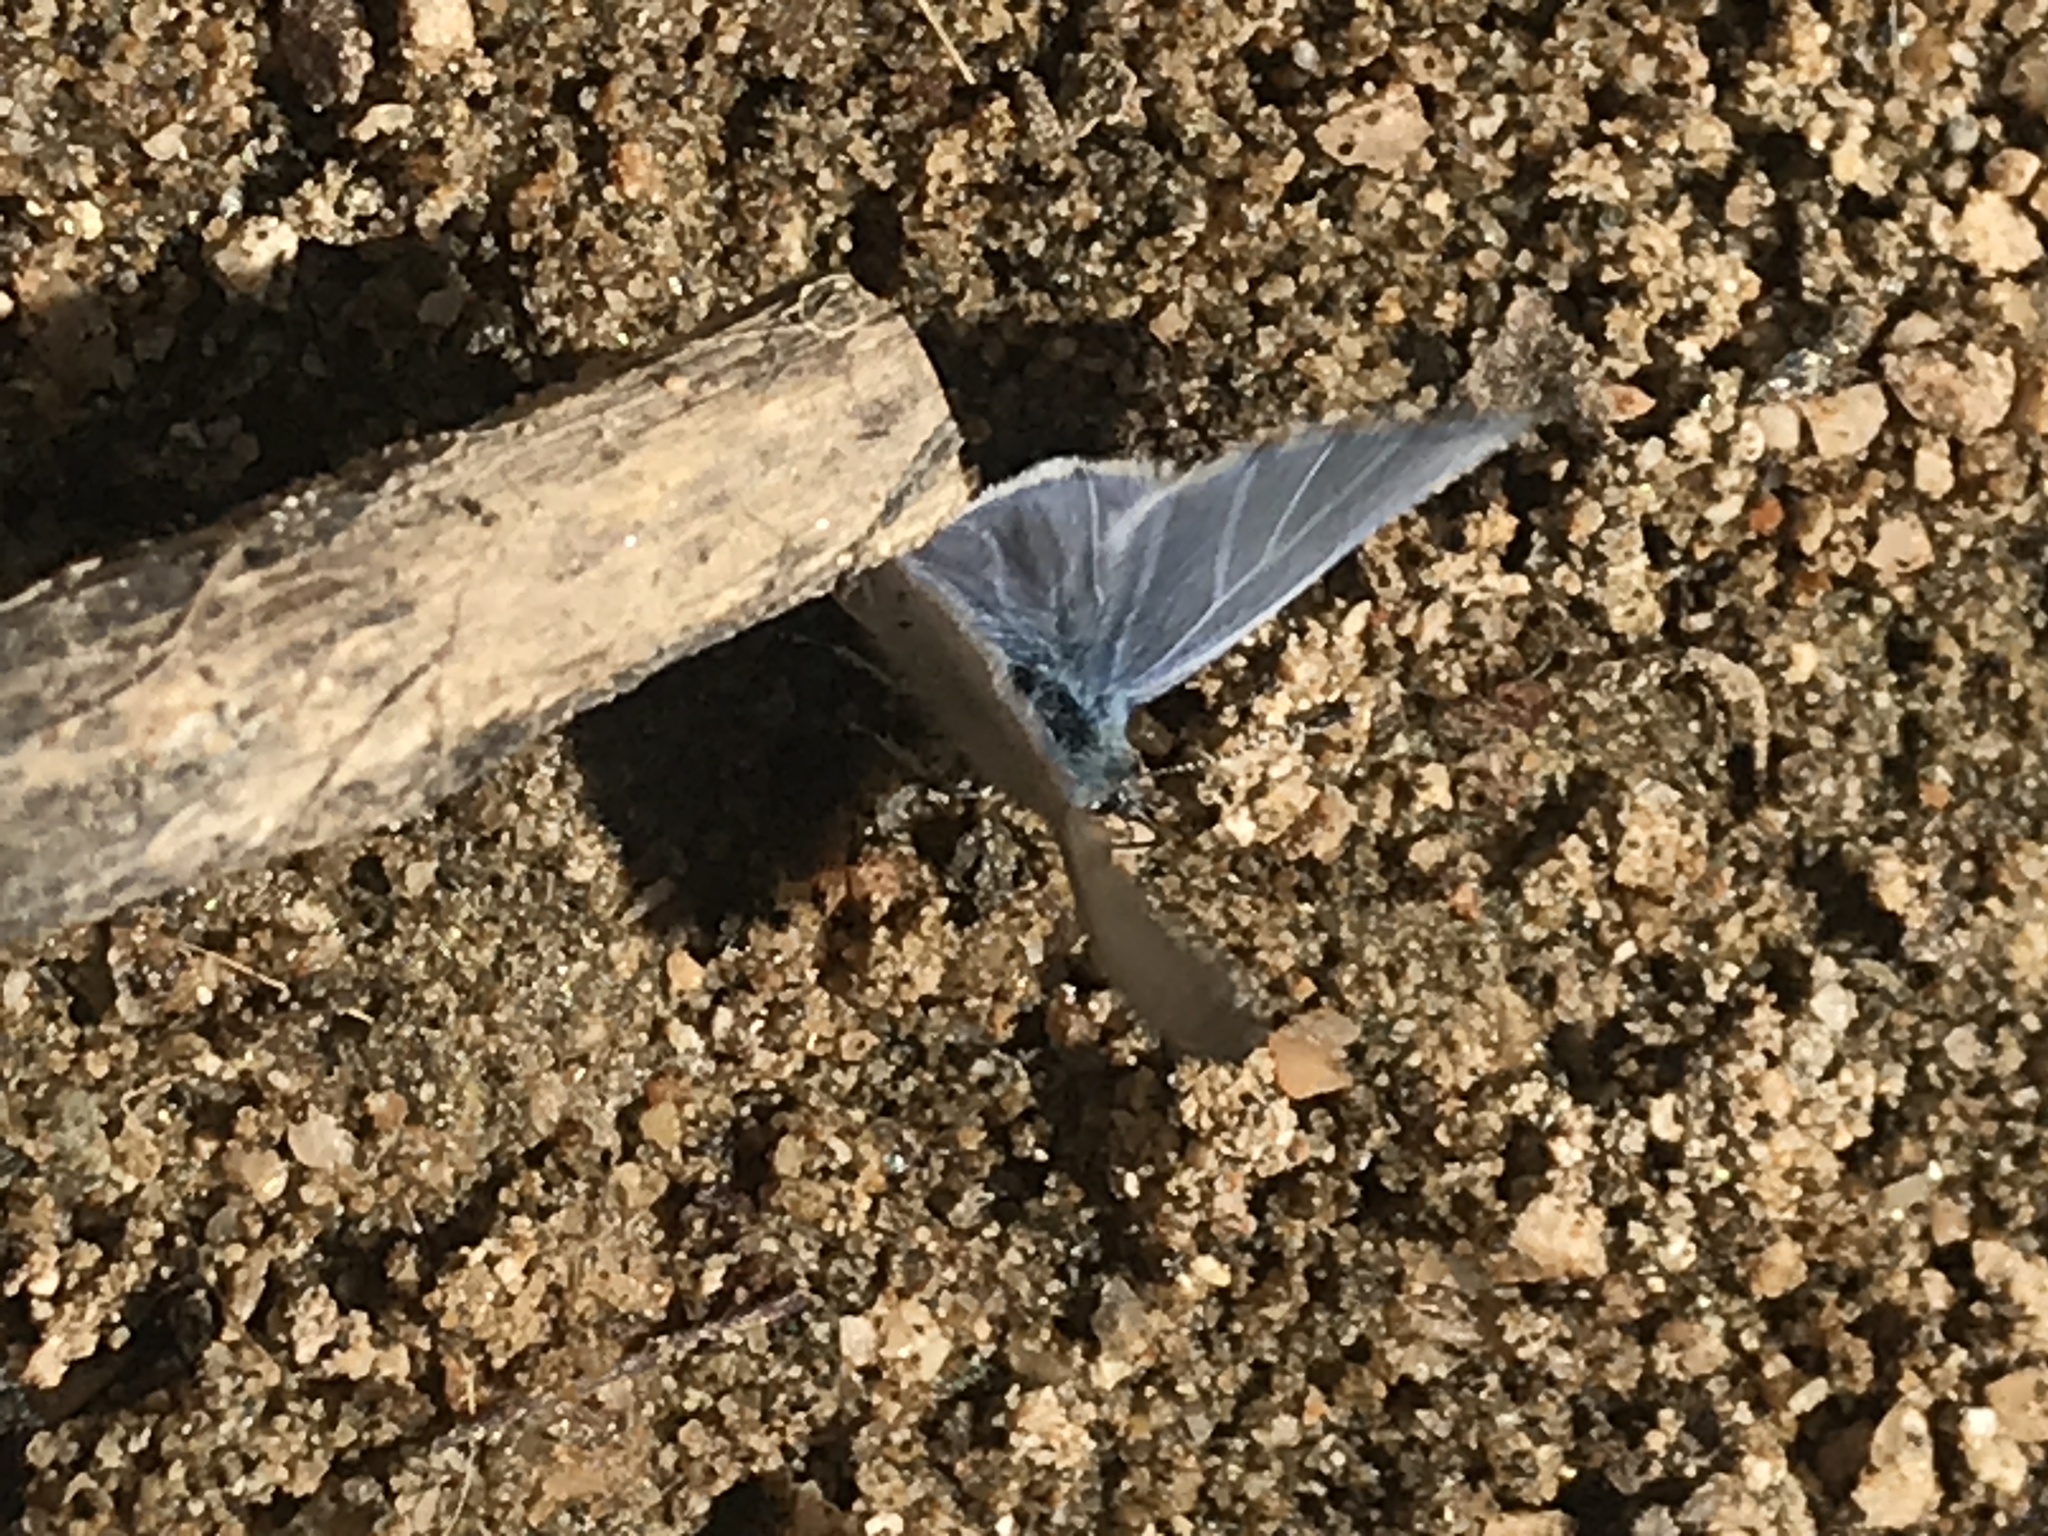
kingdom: Animalia
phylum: Arthropoda
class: Insecta
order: Lepidoptera
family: Lycaenidae
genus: Celastrina
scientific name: Celastrina ladon
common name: Spring azure
